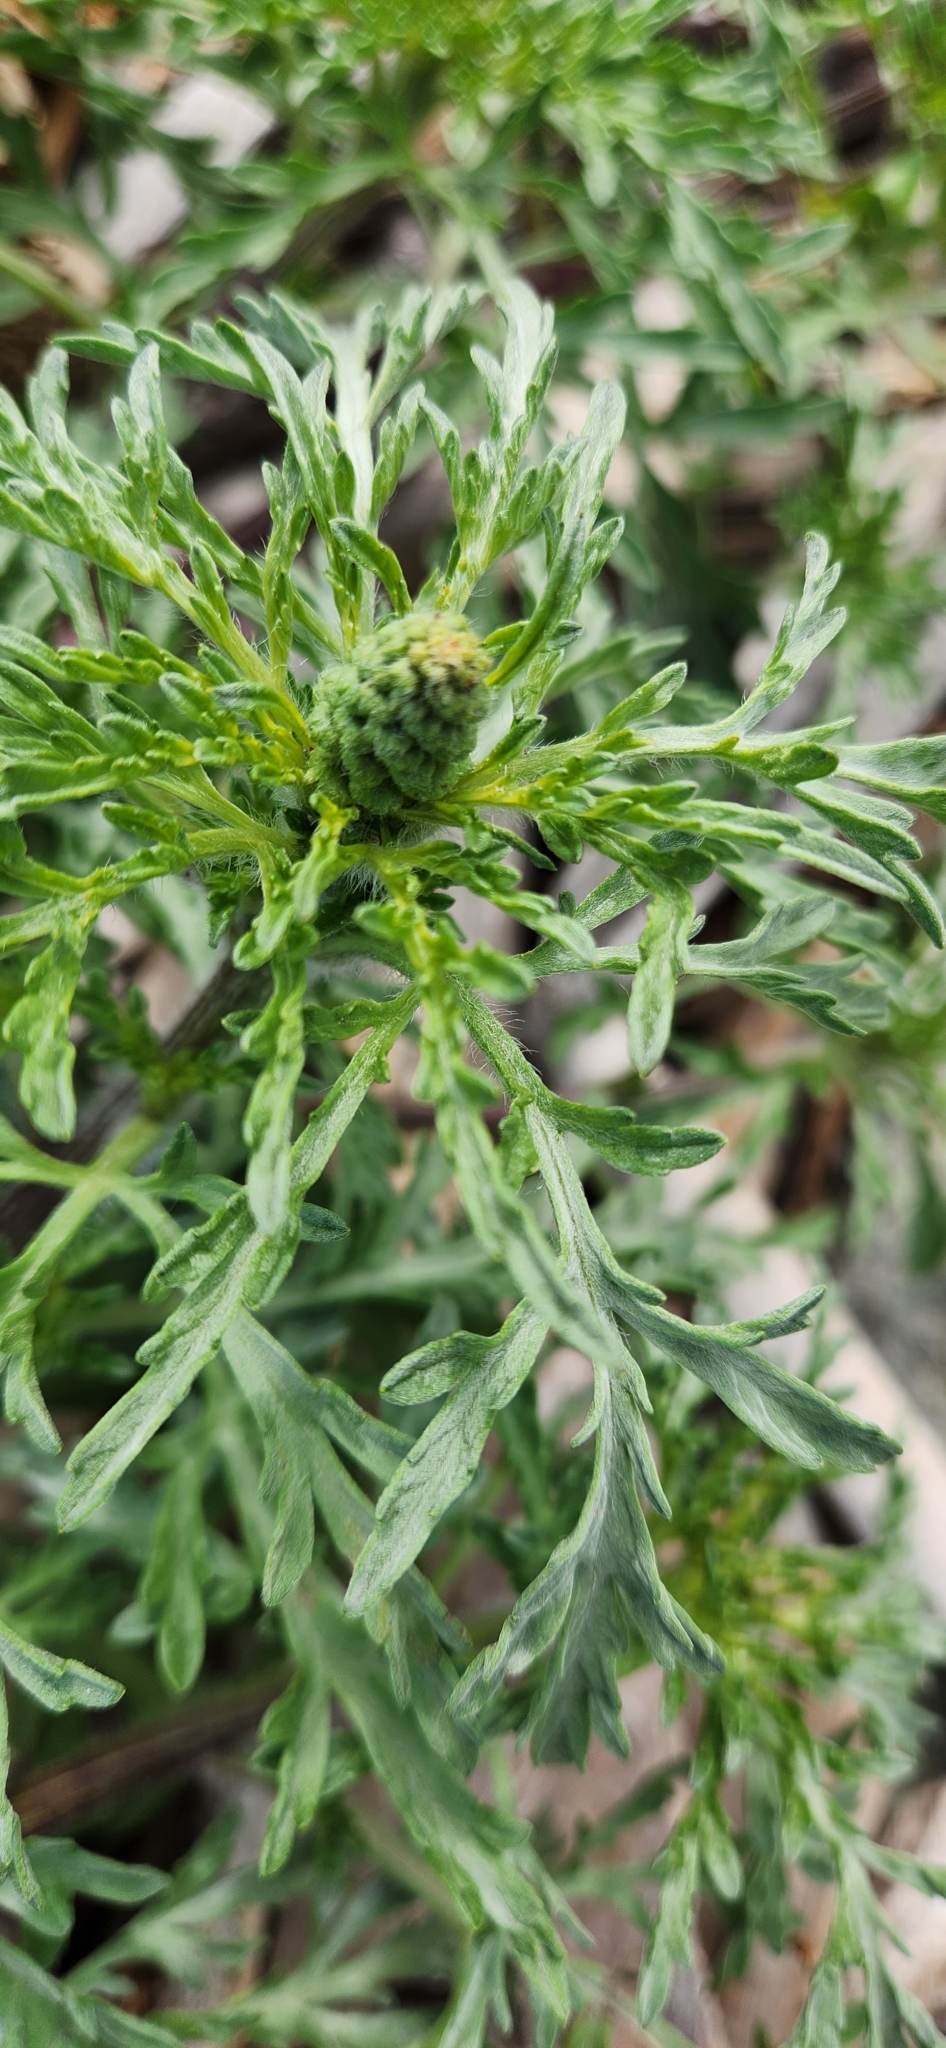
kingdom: Plantae
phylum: Tracheophyta
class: Magnoliopsida
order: Asterales
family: Asteraceae
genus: Ambrosia
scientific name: Ambrosia chamissonis
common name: Beachbur
